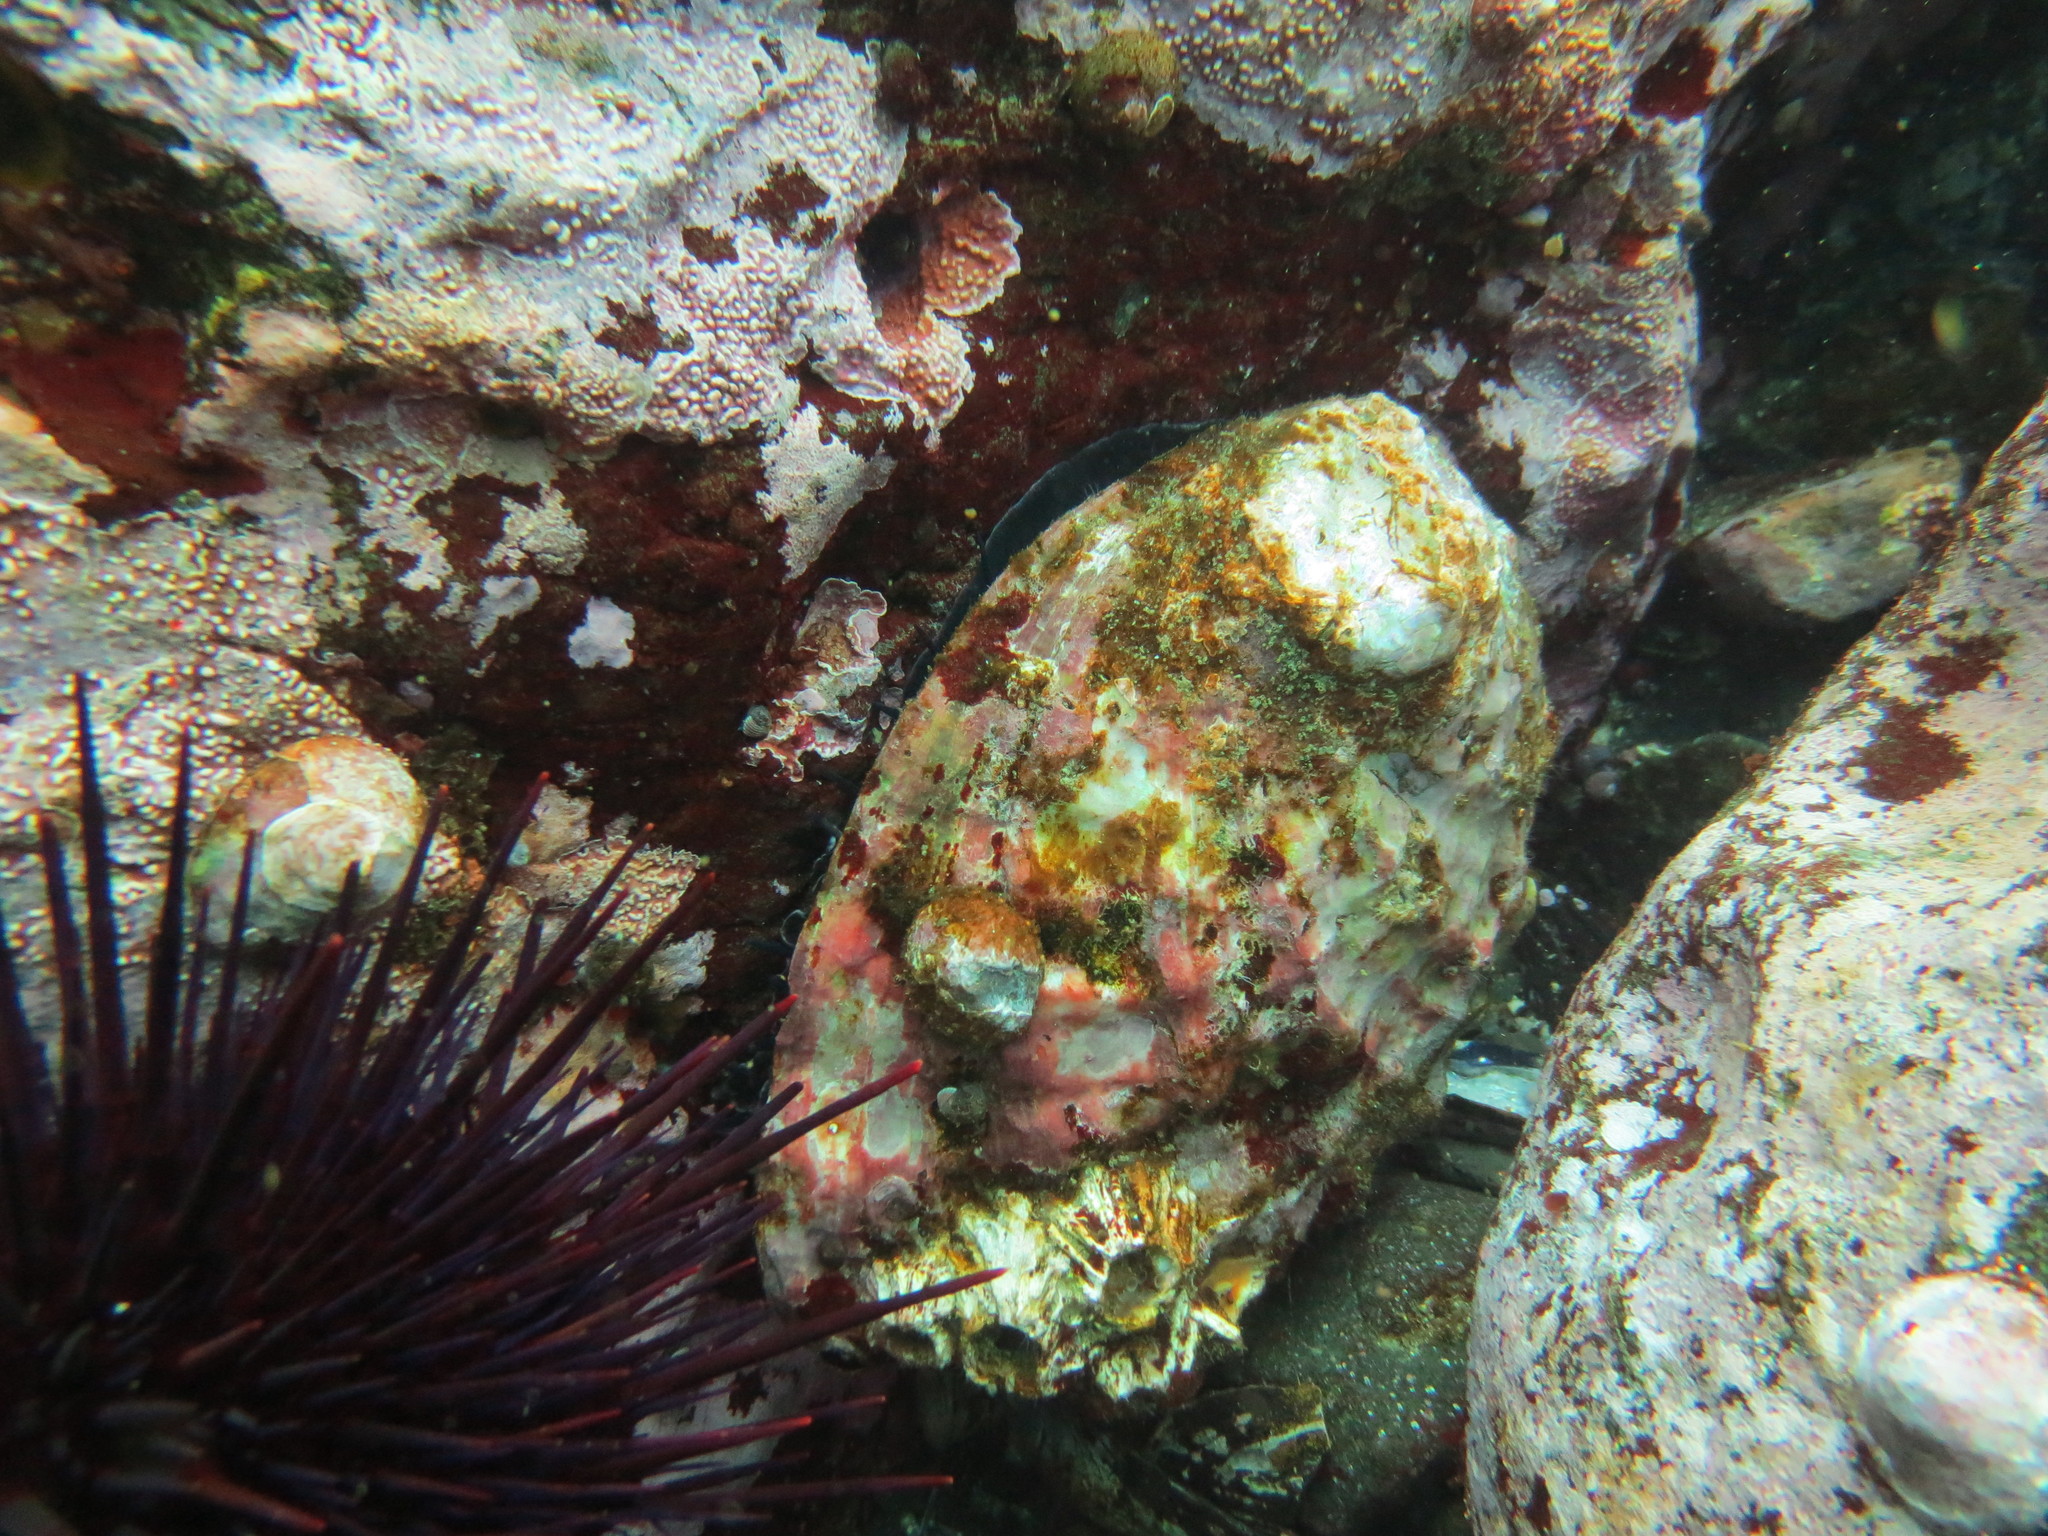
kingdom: Animalia
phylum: Mollusca
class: Gastropoda
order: Lepetellida
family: Haliotidae
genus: Haliotis
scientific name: Haliotis rufescens
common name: Red abalone
